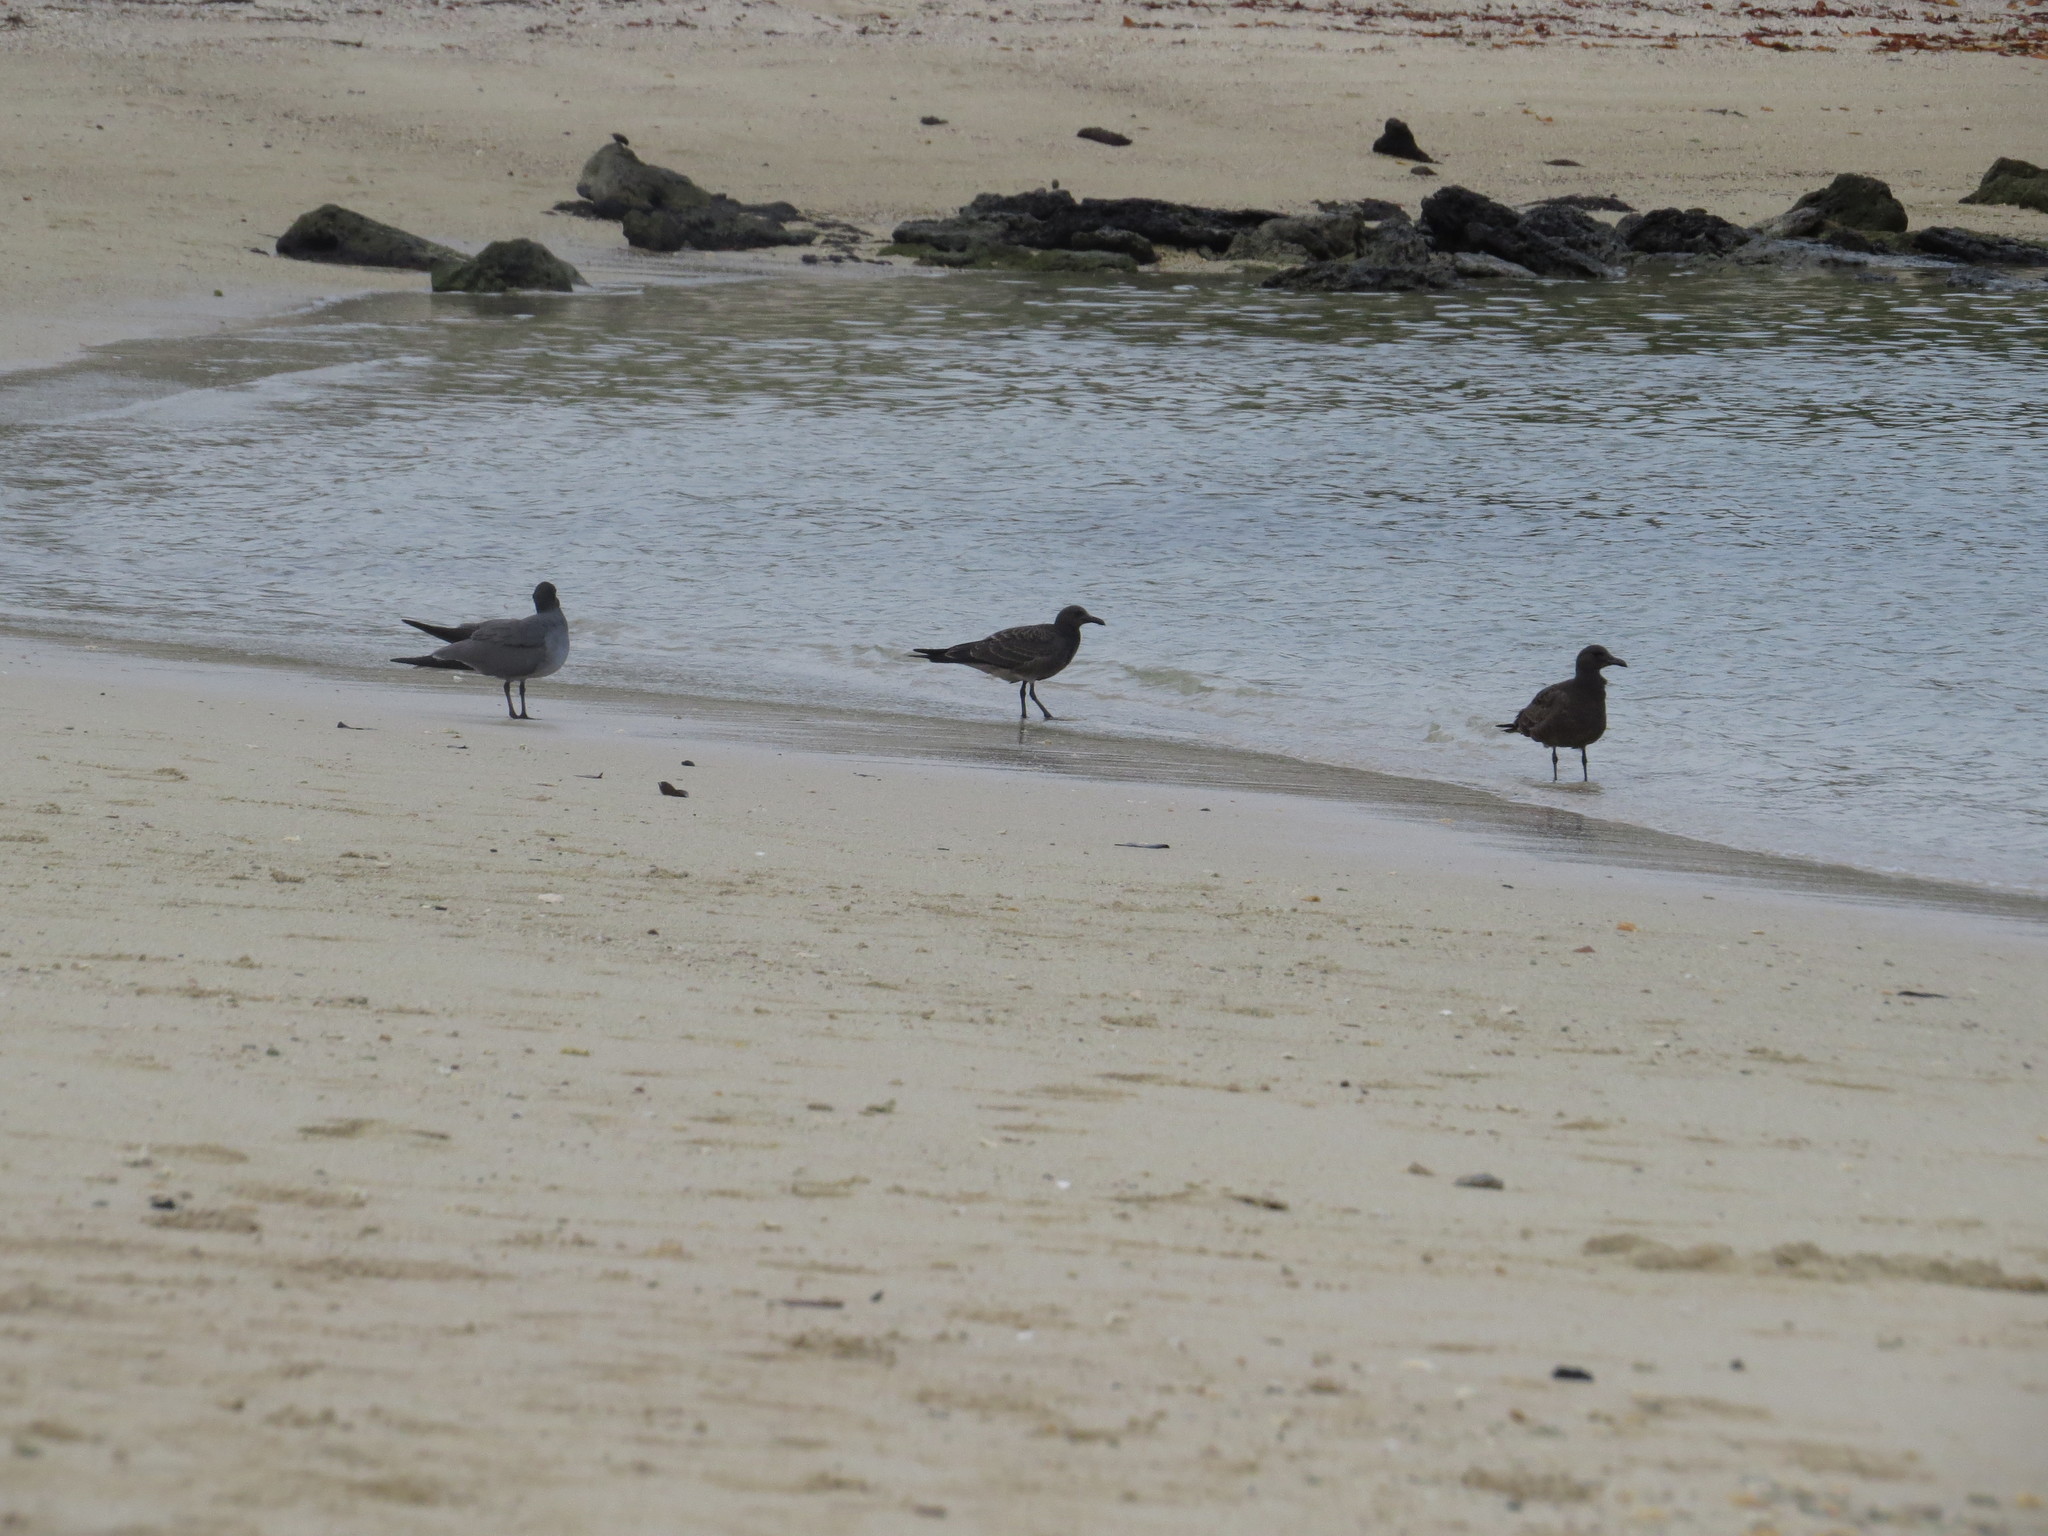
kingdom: Animalia
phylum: Chordata
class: Aves
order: Charadriiformes
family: Laridae
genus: Leucophaeus
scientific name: Leucophaeus fuliginosus
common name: Lava gull
